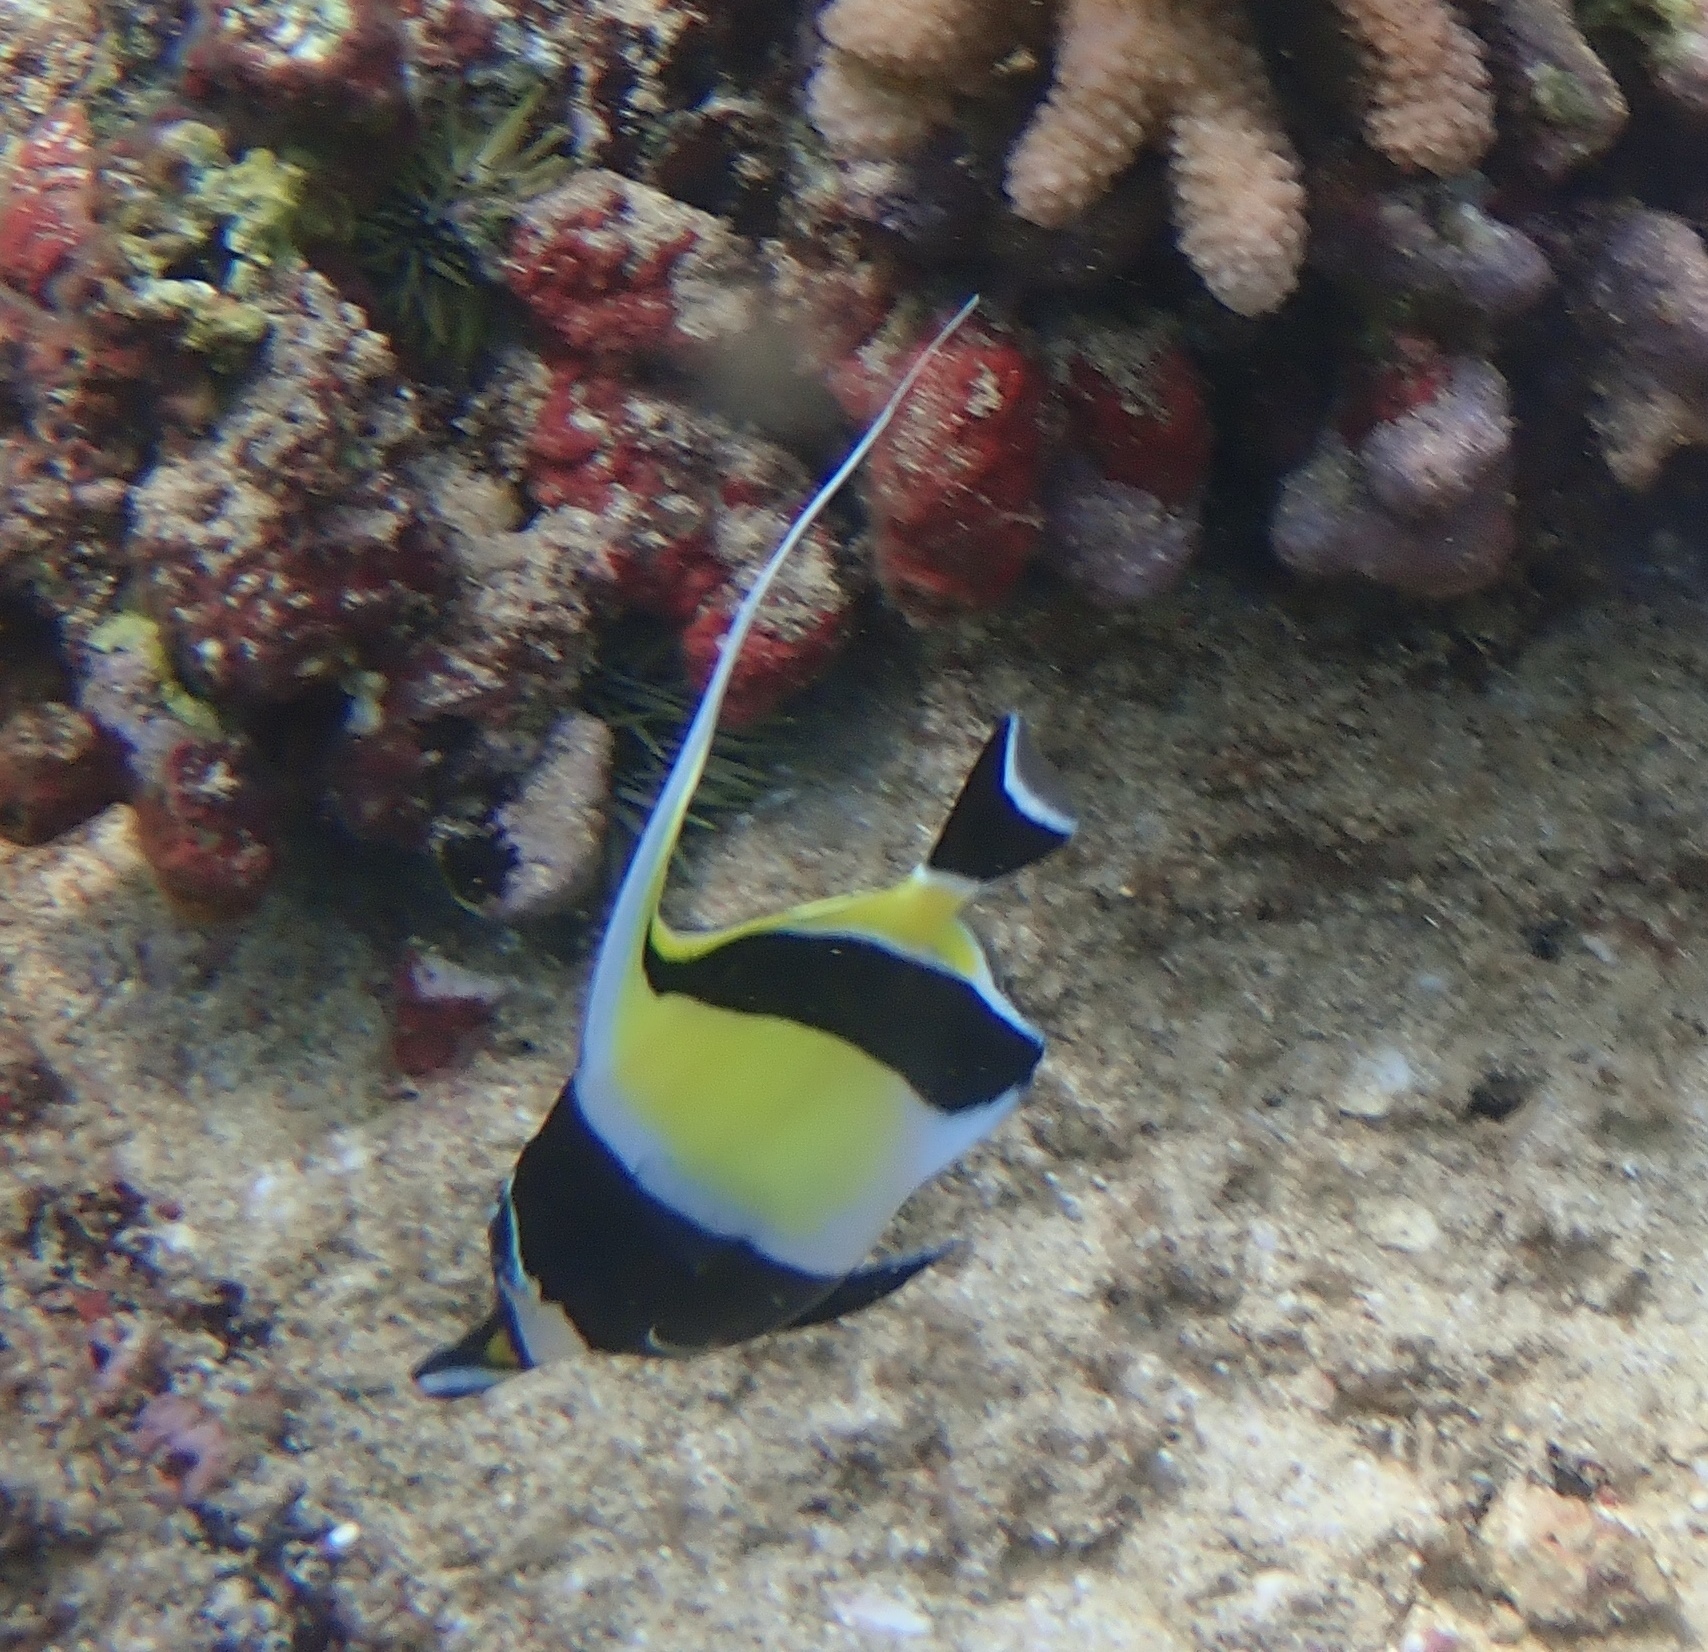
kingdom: Animalia
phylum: Chordata
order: Perciformes
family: Zanclidae
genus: Zanclus
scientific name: Zanclus cornutus
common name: Moorish idol
